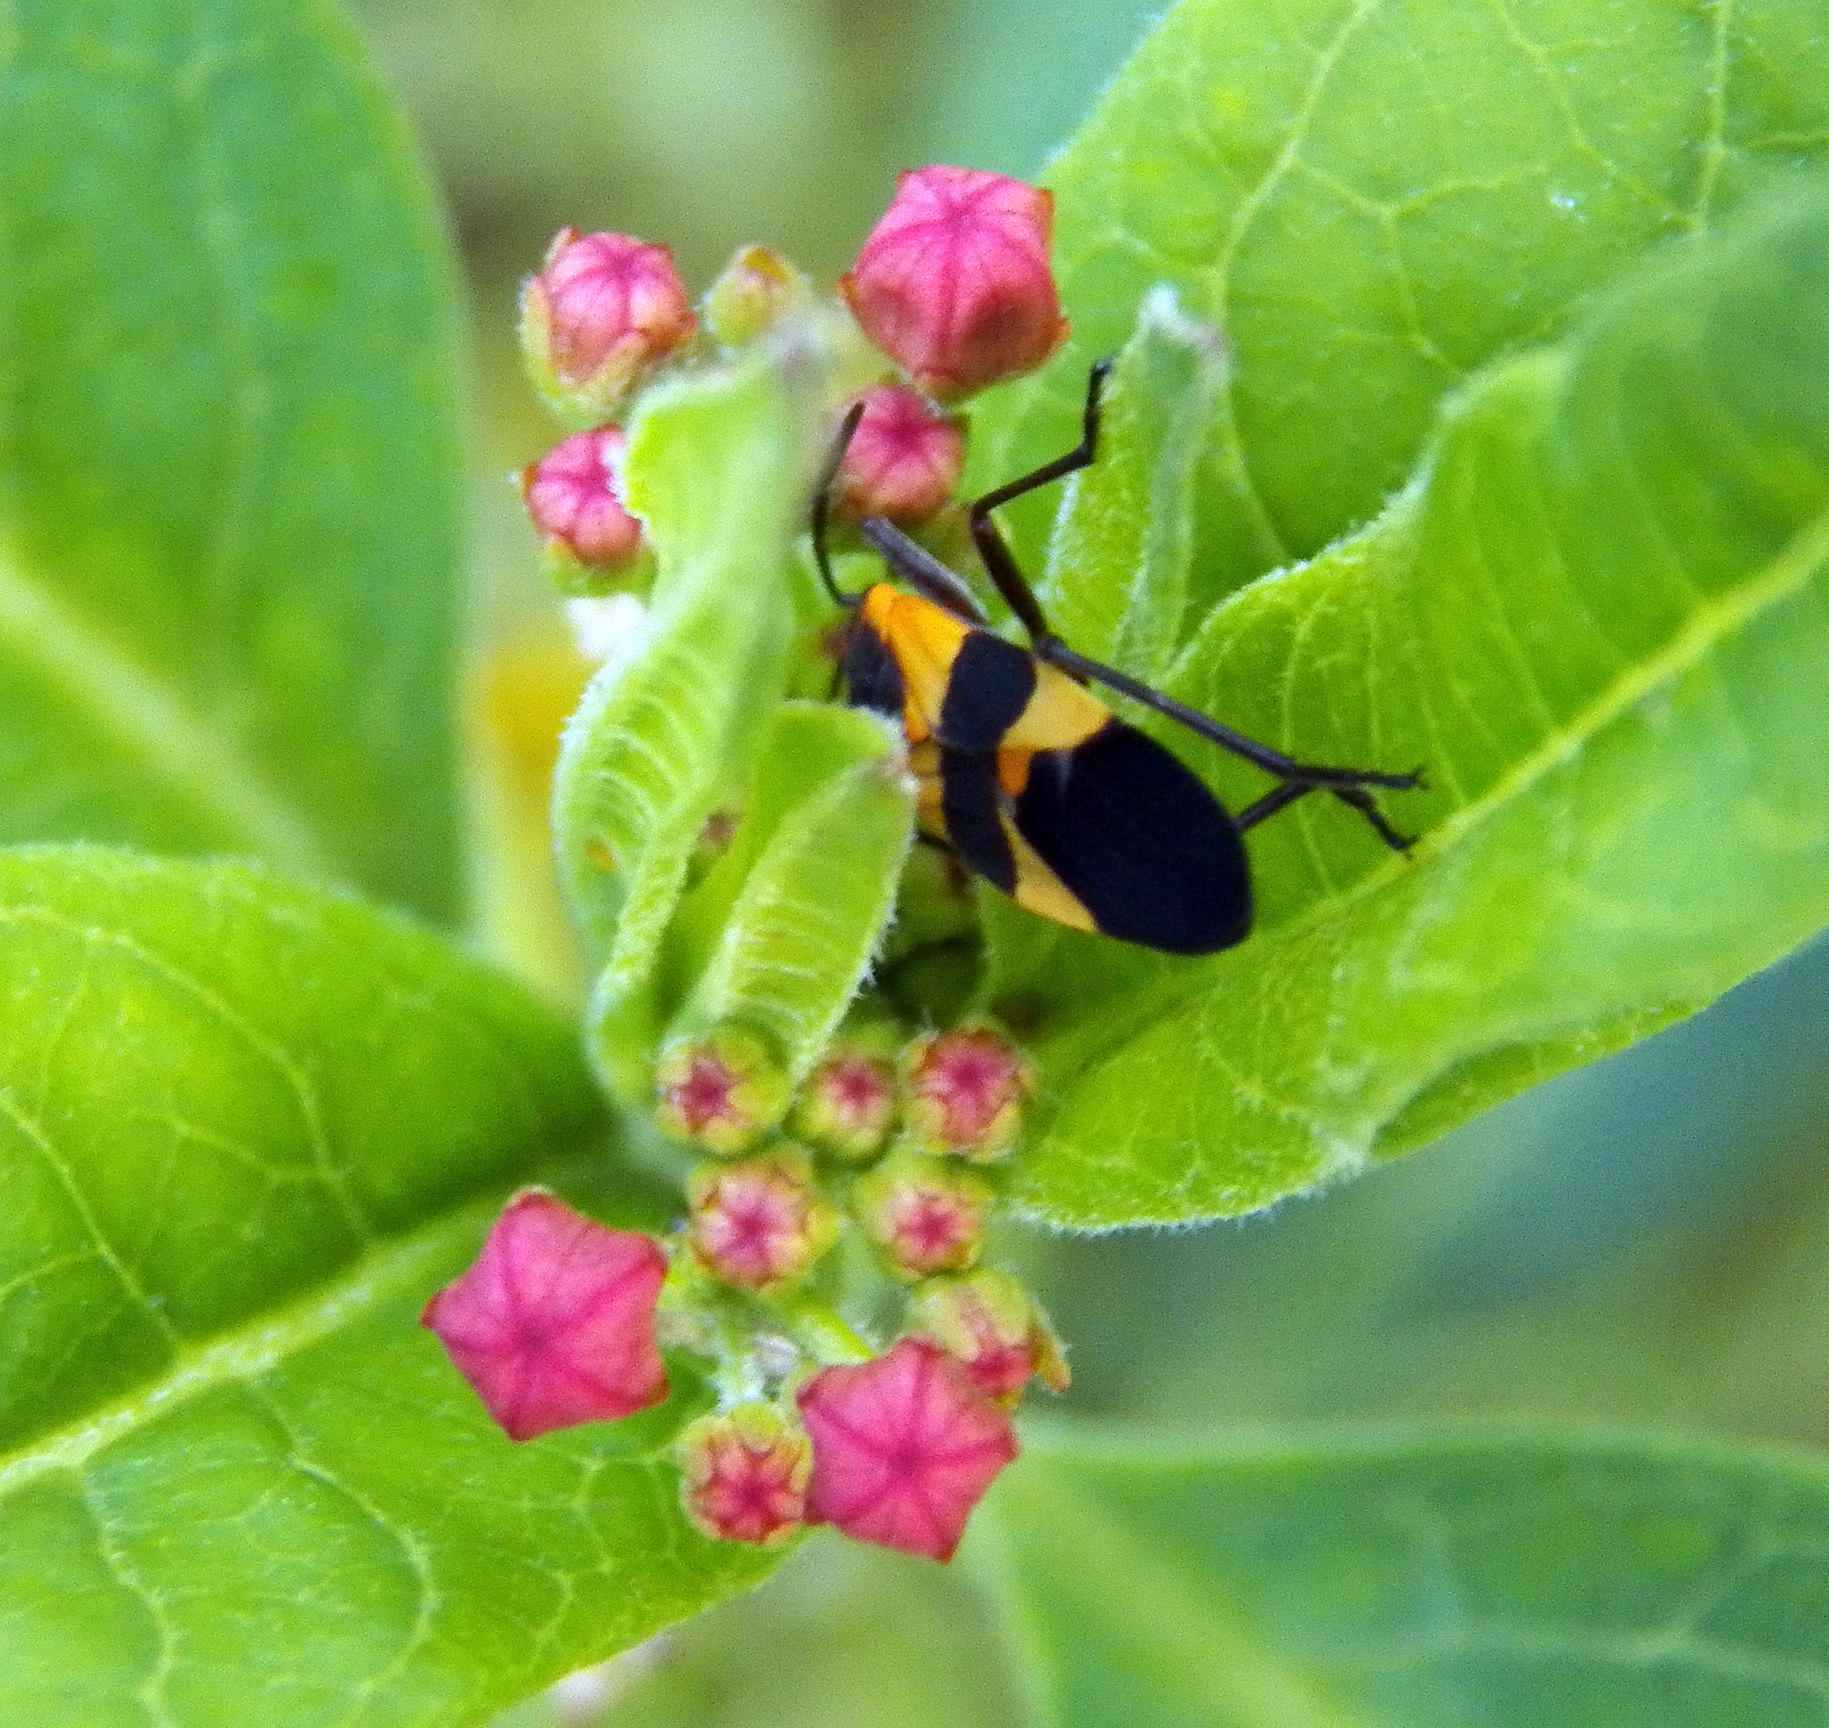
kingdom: Animalia
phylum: Arthropoda
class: Insecta
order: Hemiptera
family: Lygaeidae
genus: Oncopeltus
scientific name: Oncopeltus fasciatus
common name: Large milkweed bug
